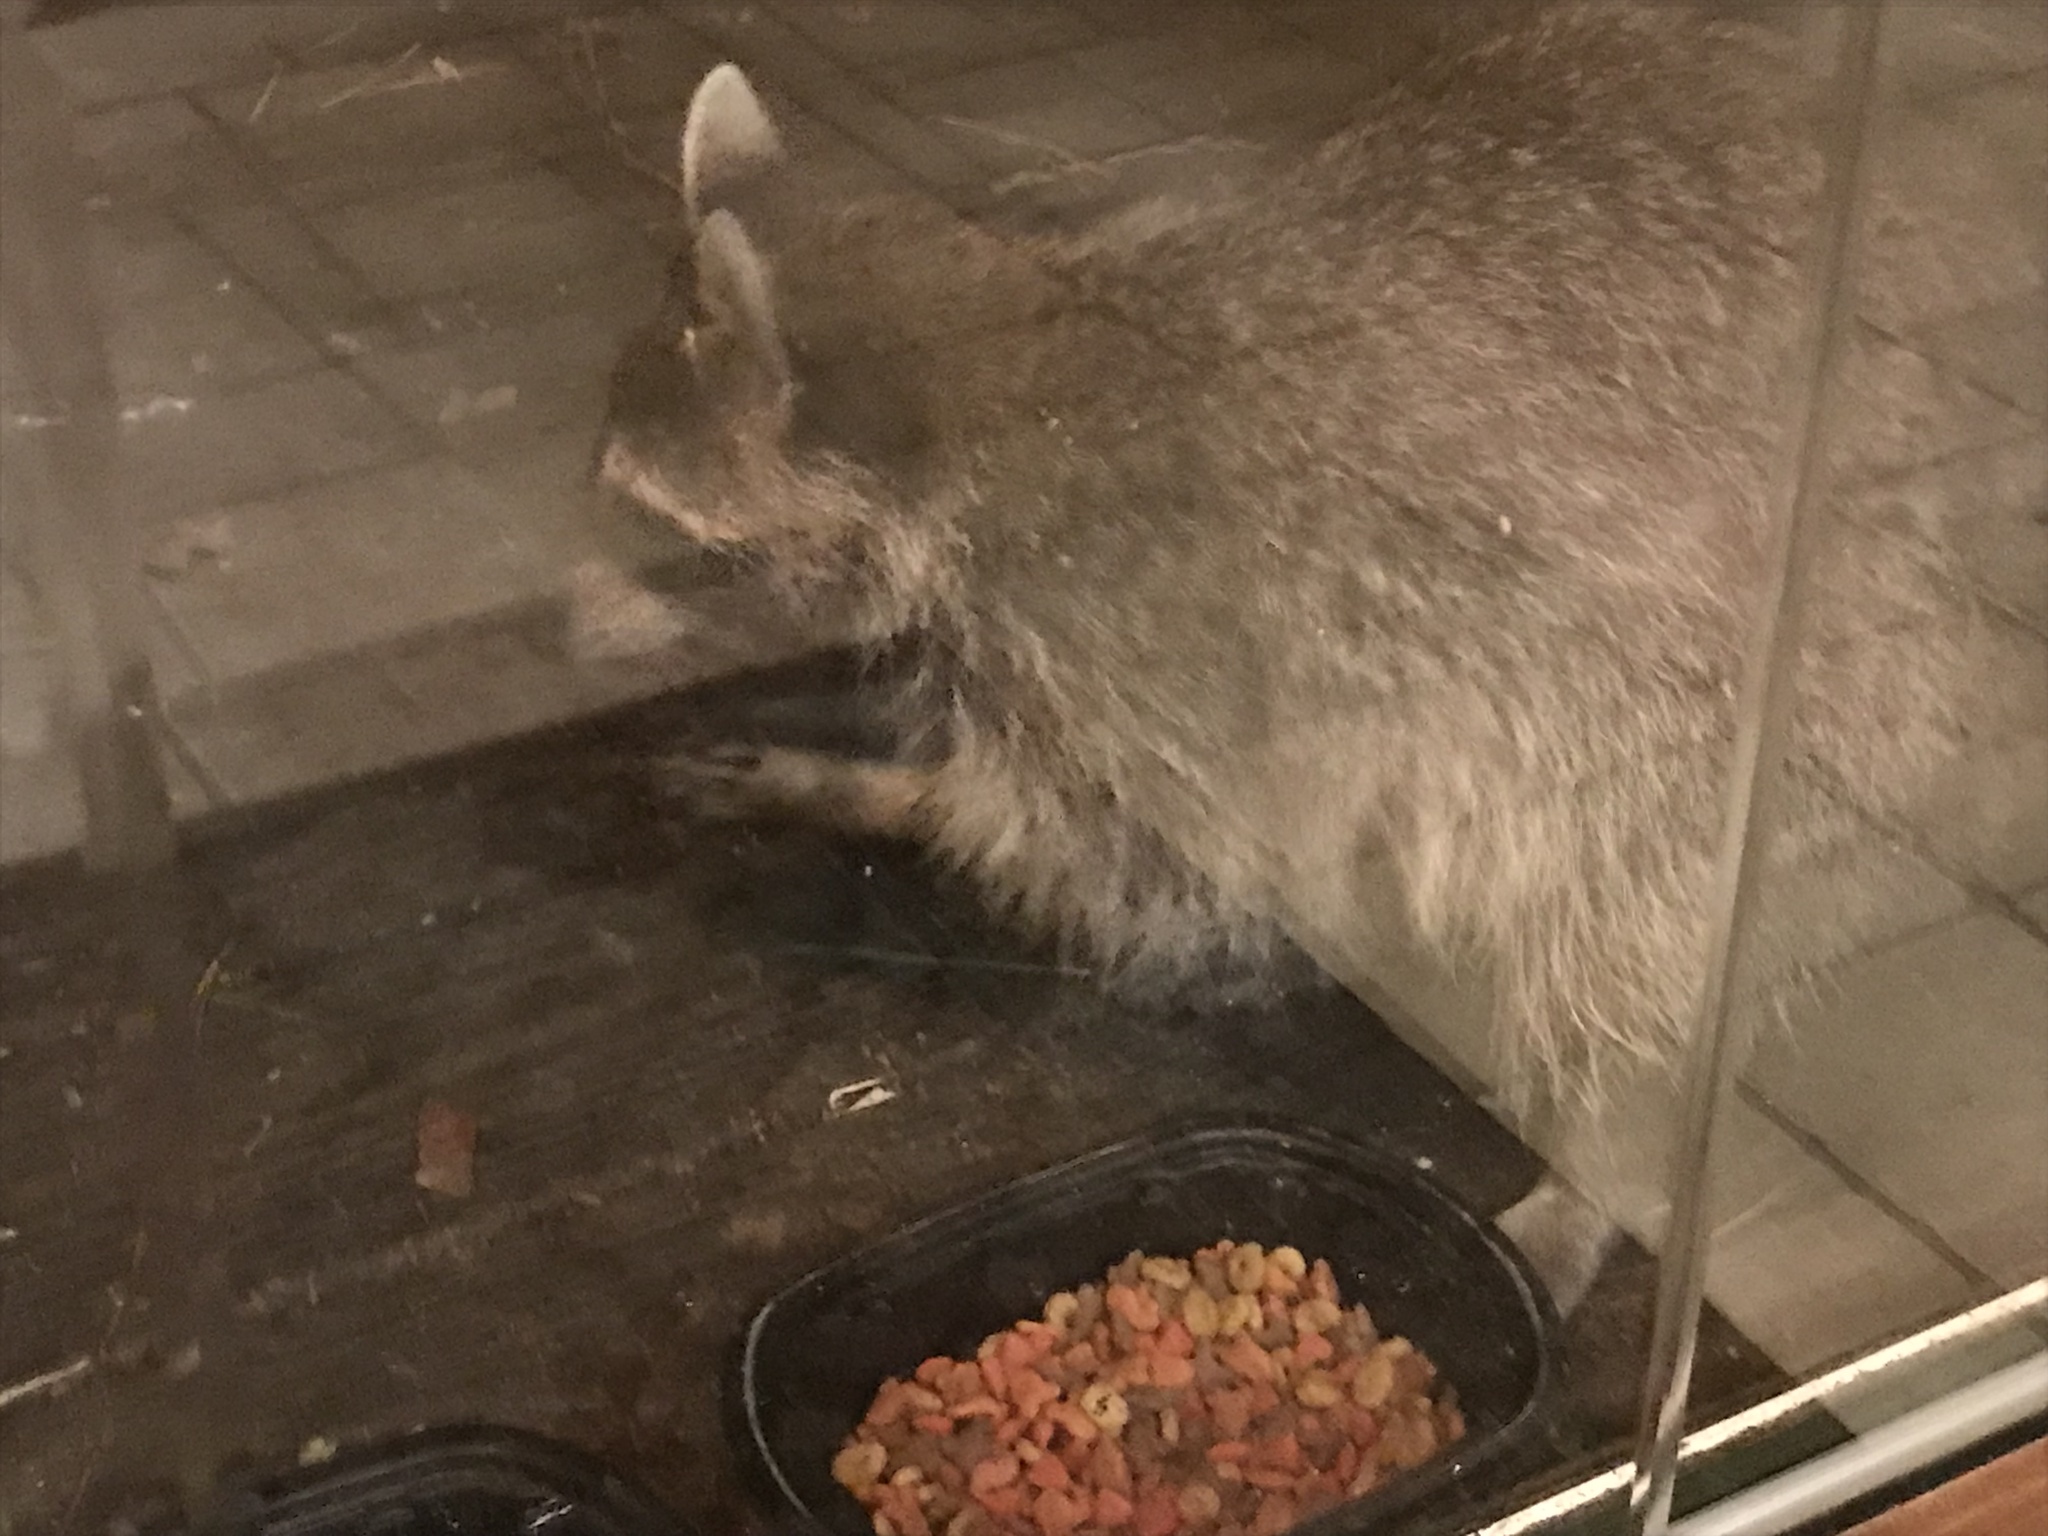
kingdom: Animalia
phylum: Chordata
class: Mammalia
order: Carnivora
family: Procyonidae
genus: Procyon
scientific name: Procyon lotor
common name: Raccoon
